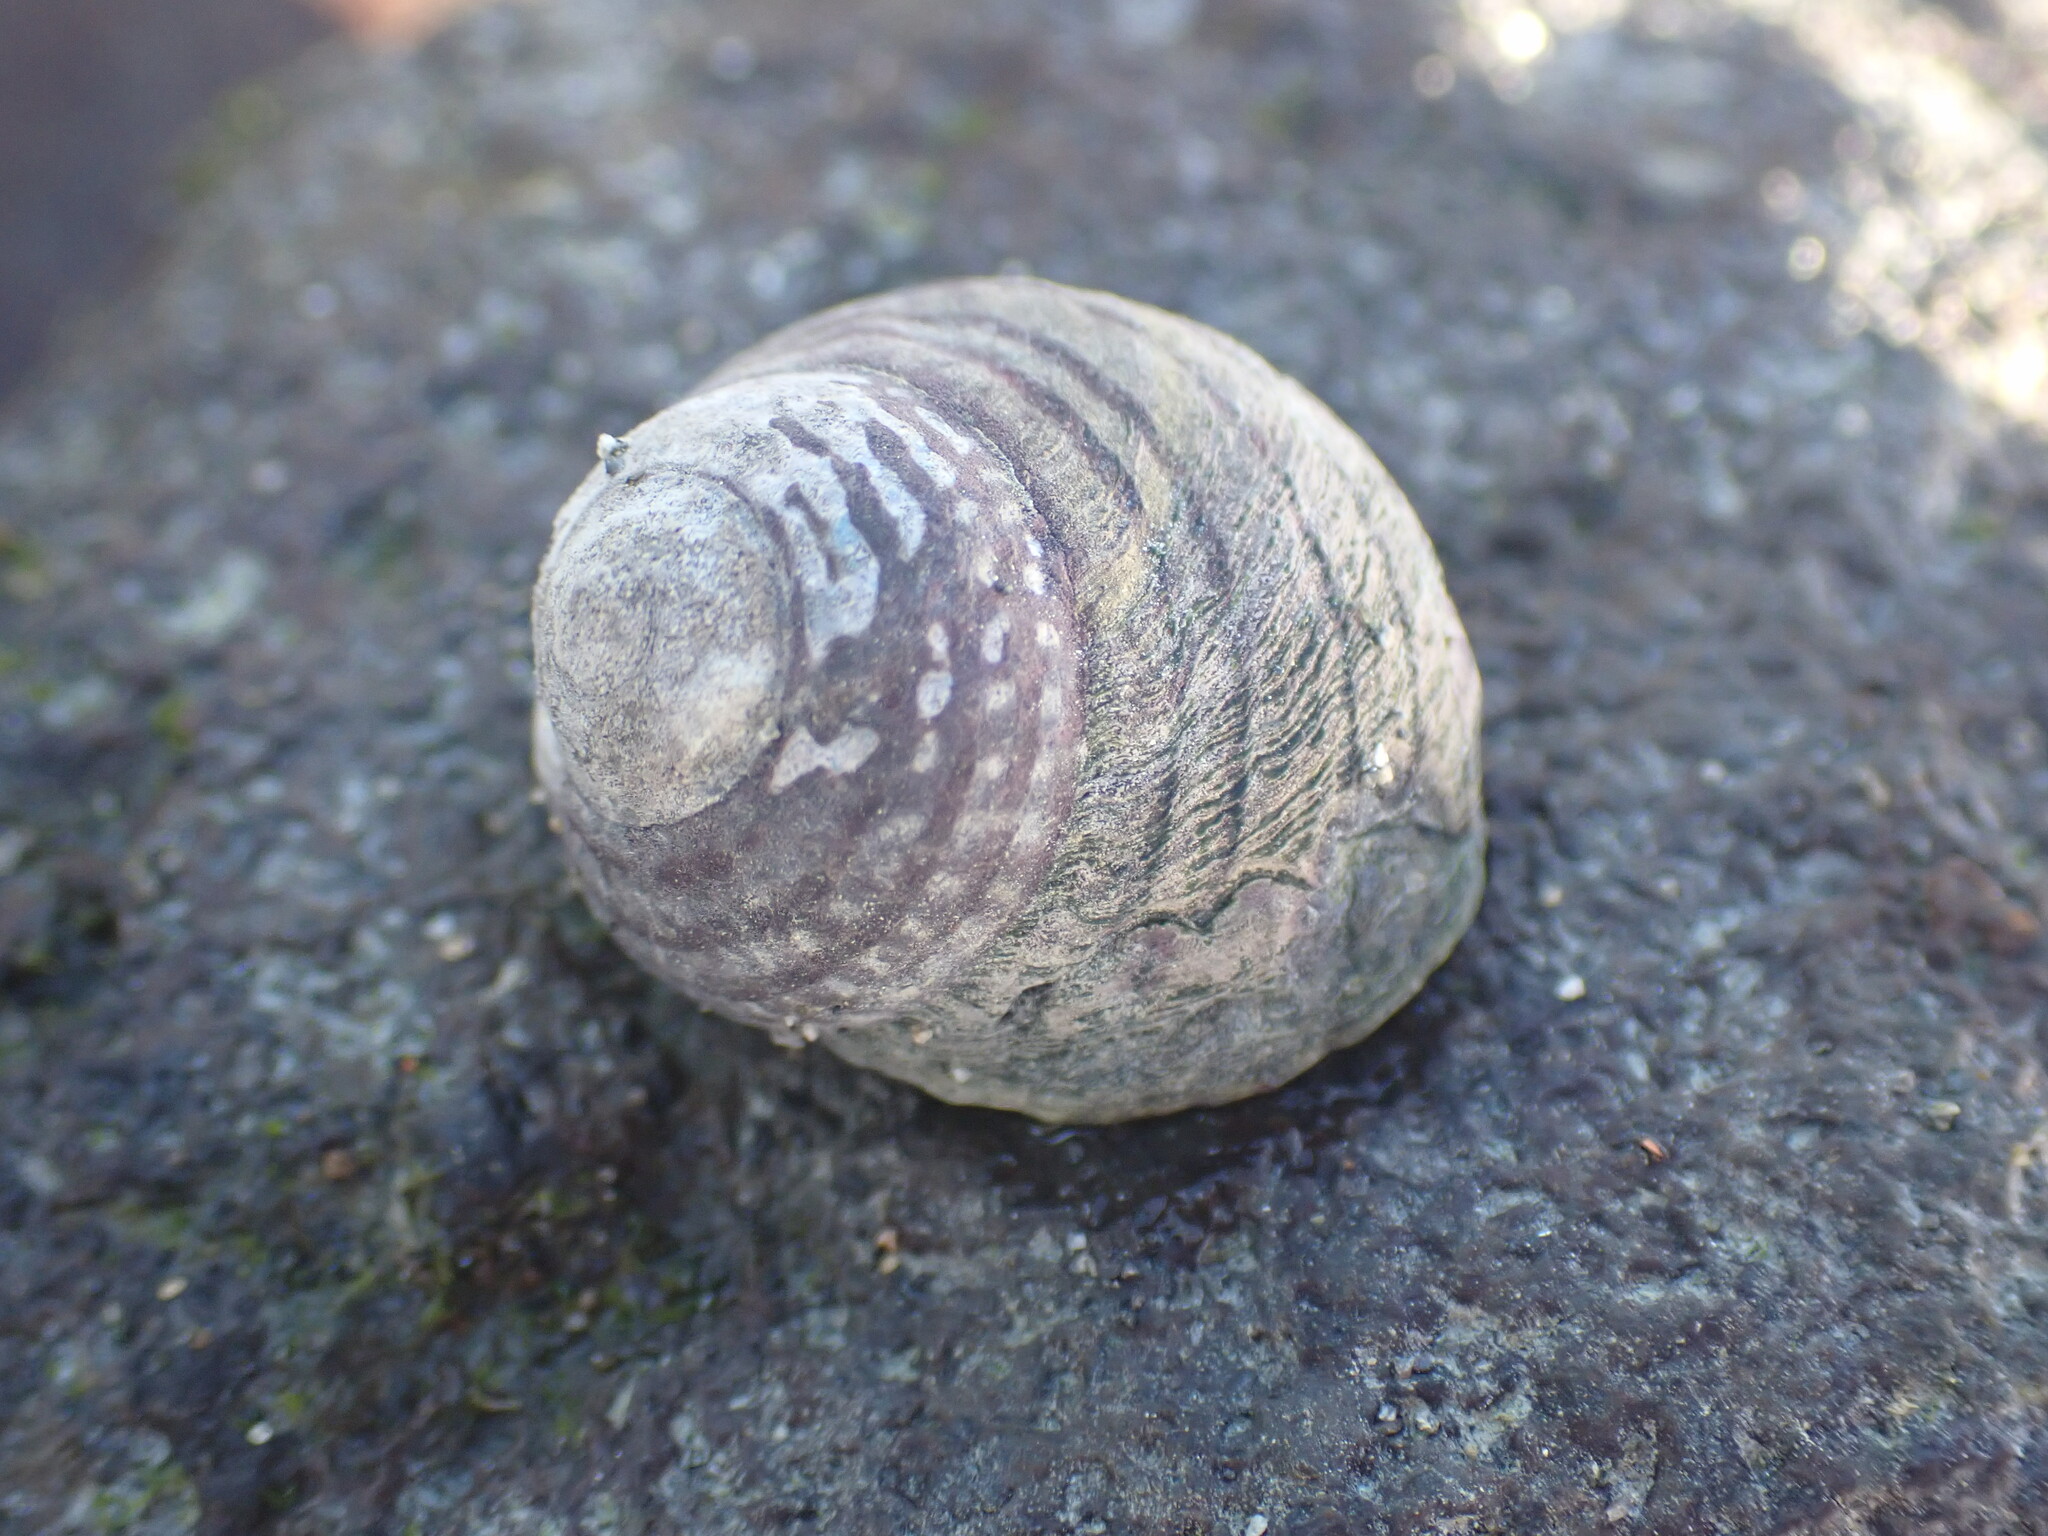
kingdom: Animalia
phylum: Mollusca
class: Gastropoda
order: Trochida
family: Trochidae
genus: Diloma
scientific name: Diloma aethiops
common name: Scorched monodont
